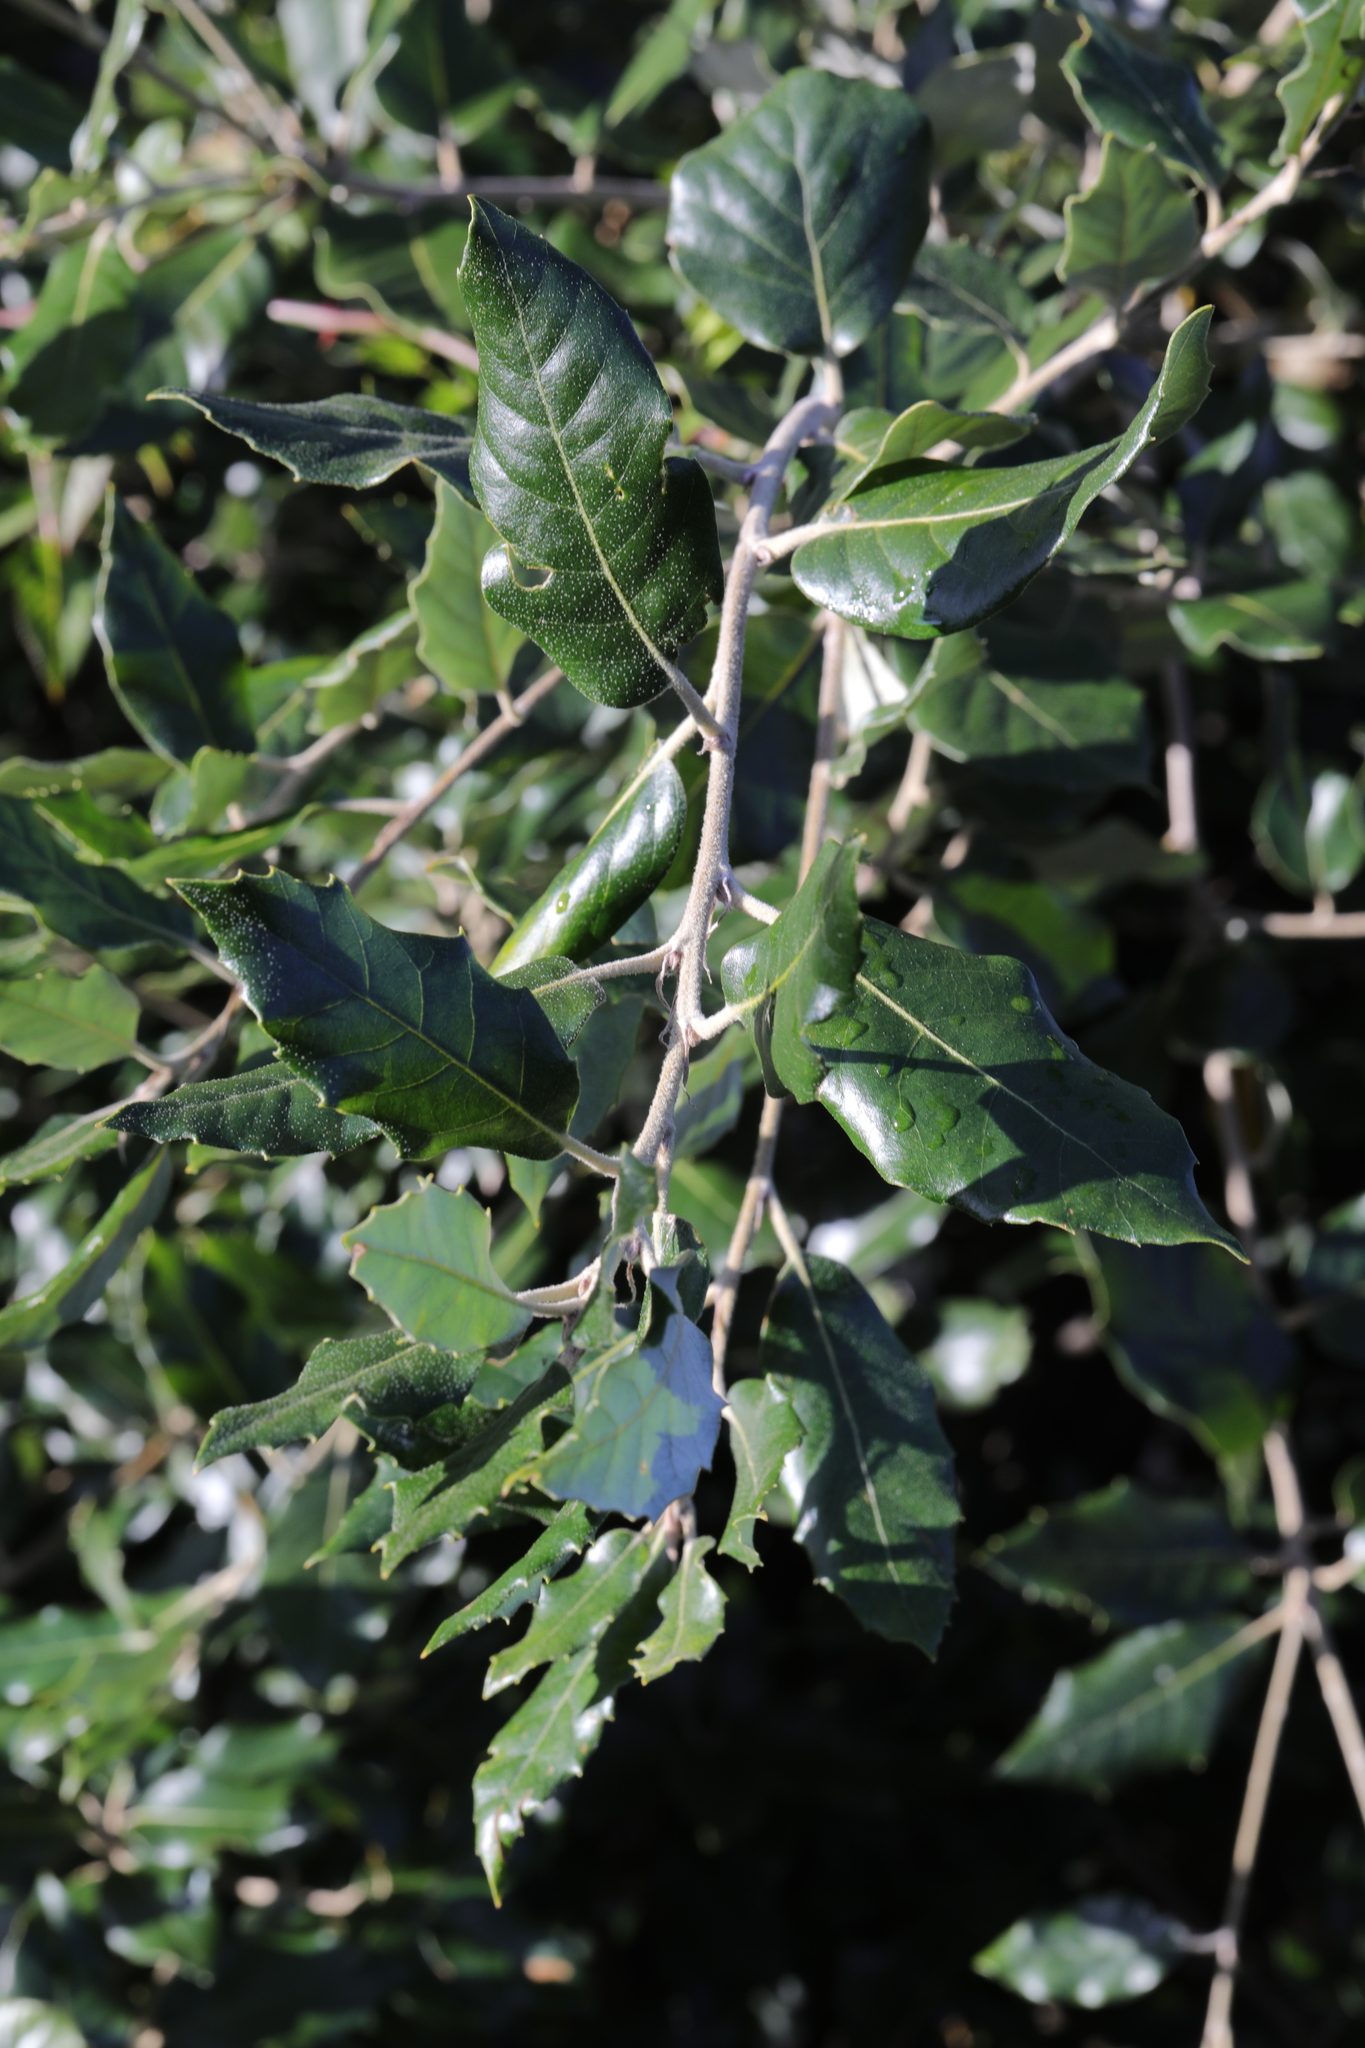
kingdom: Plantae
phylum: Tracheophyta
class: Magnoliopsida
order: Fagales
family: Fagaceae
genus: Quercus
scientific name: Quercus ilex
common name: Evergreen oak
